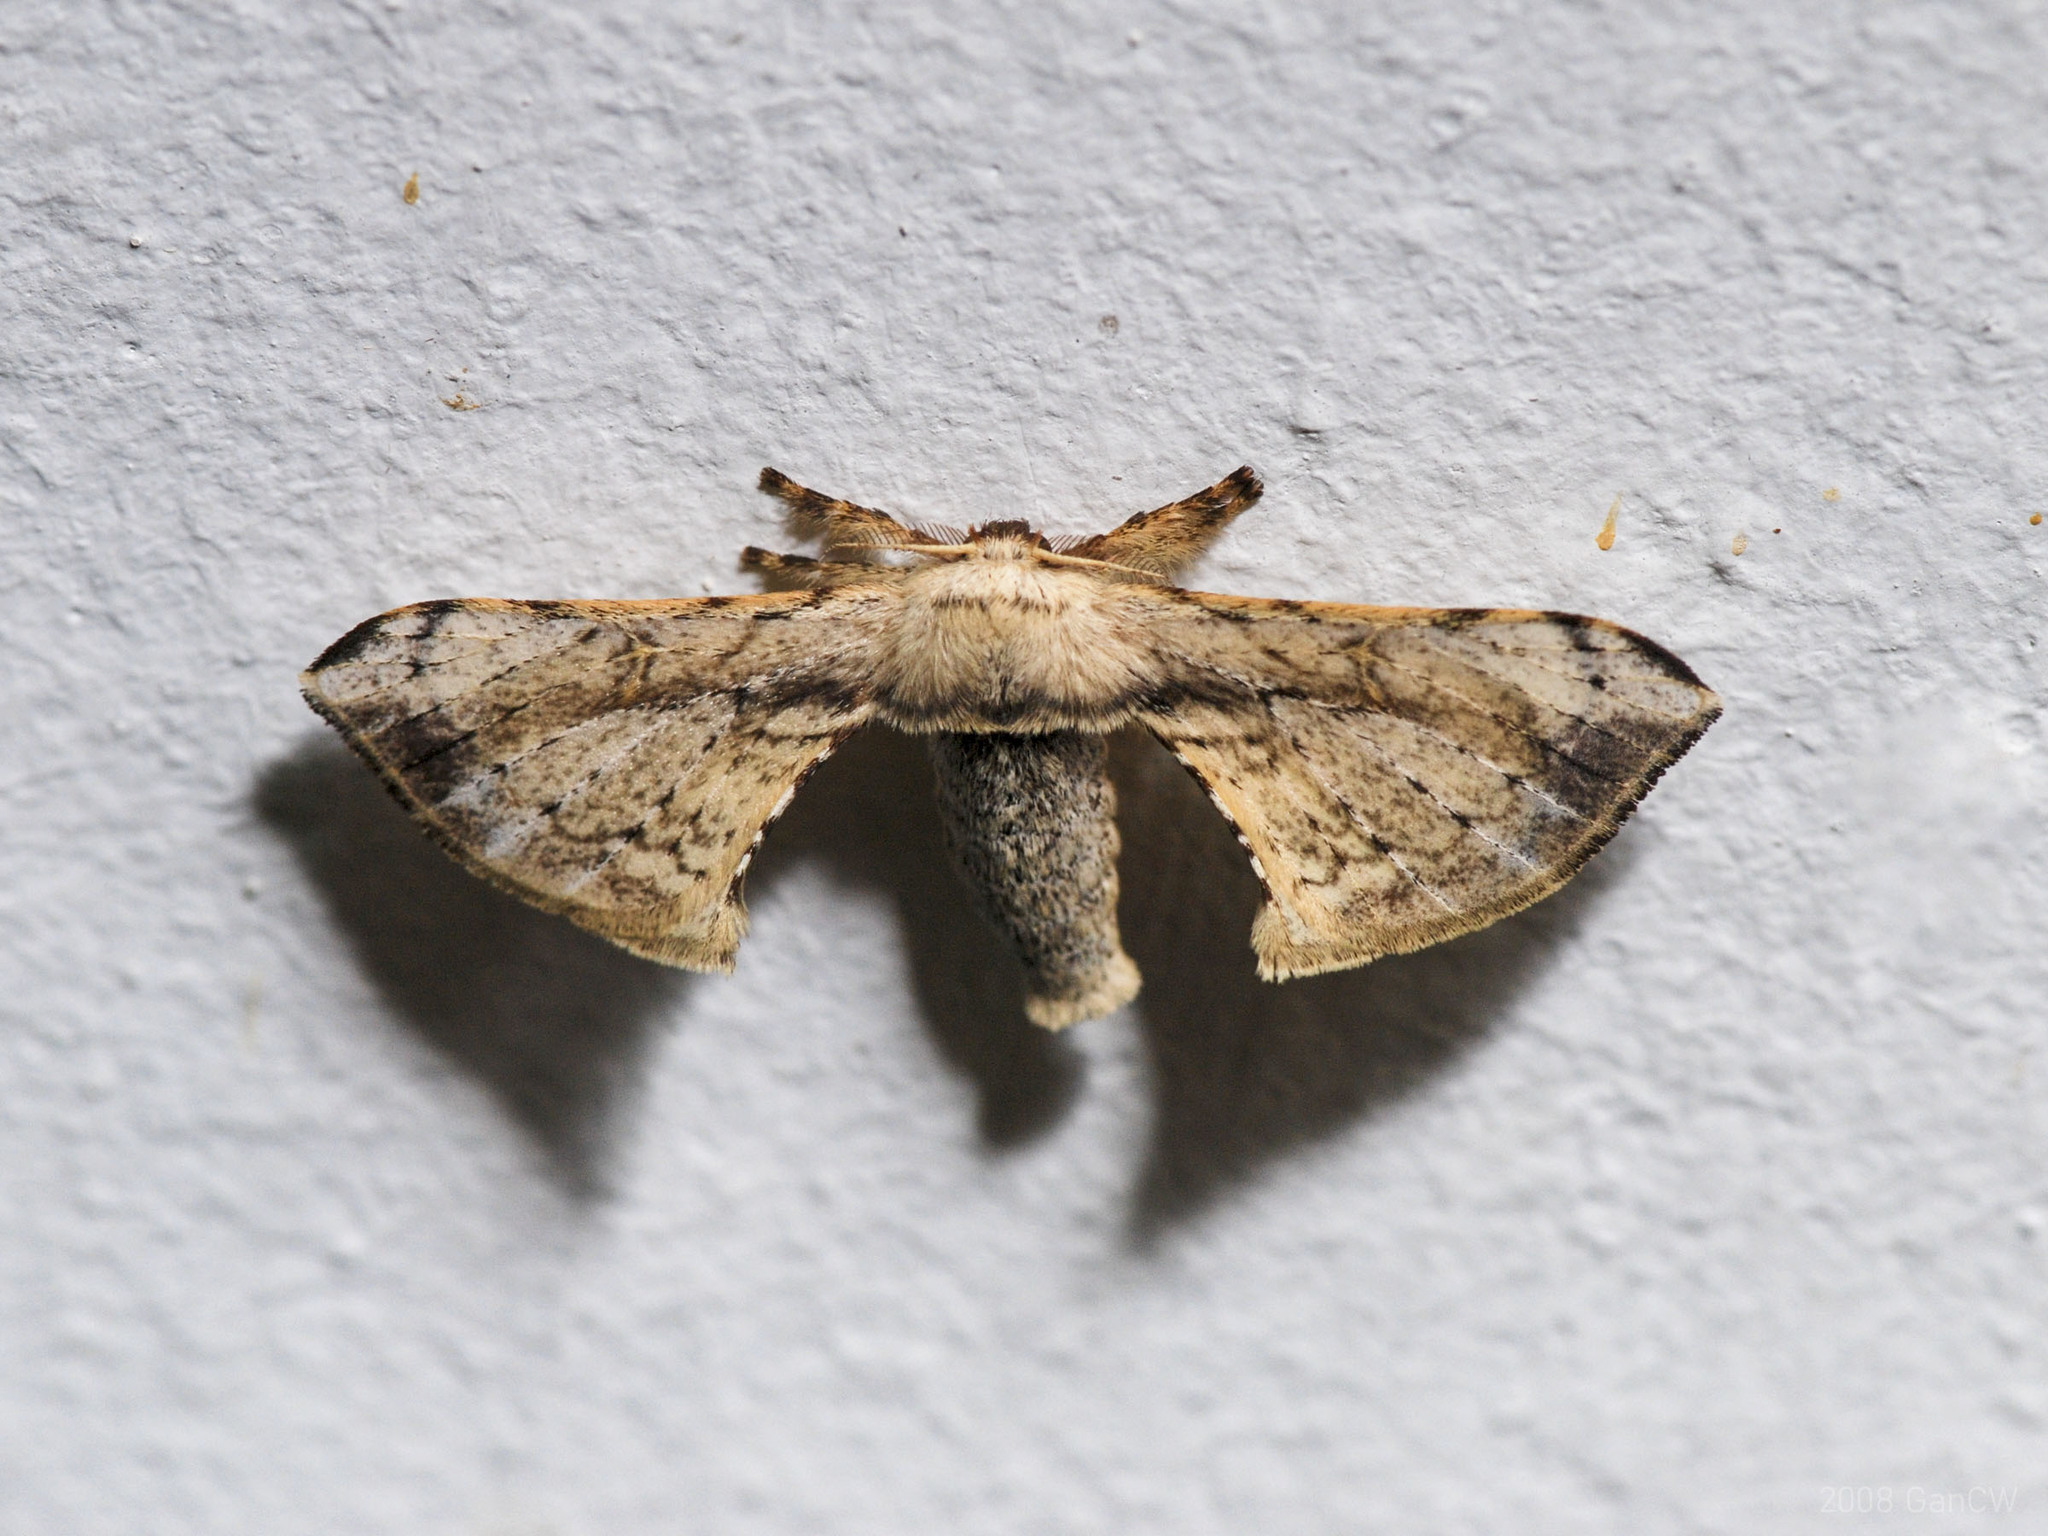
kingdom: Animalia
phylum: Arthropoda
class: Insecta
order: Lepidoptera
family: Bombycidae
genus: Ocinara
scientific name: Ocinara albicollis
